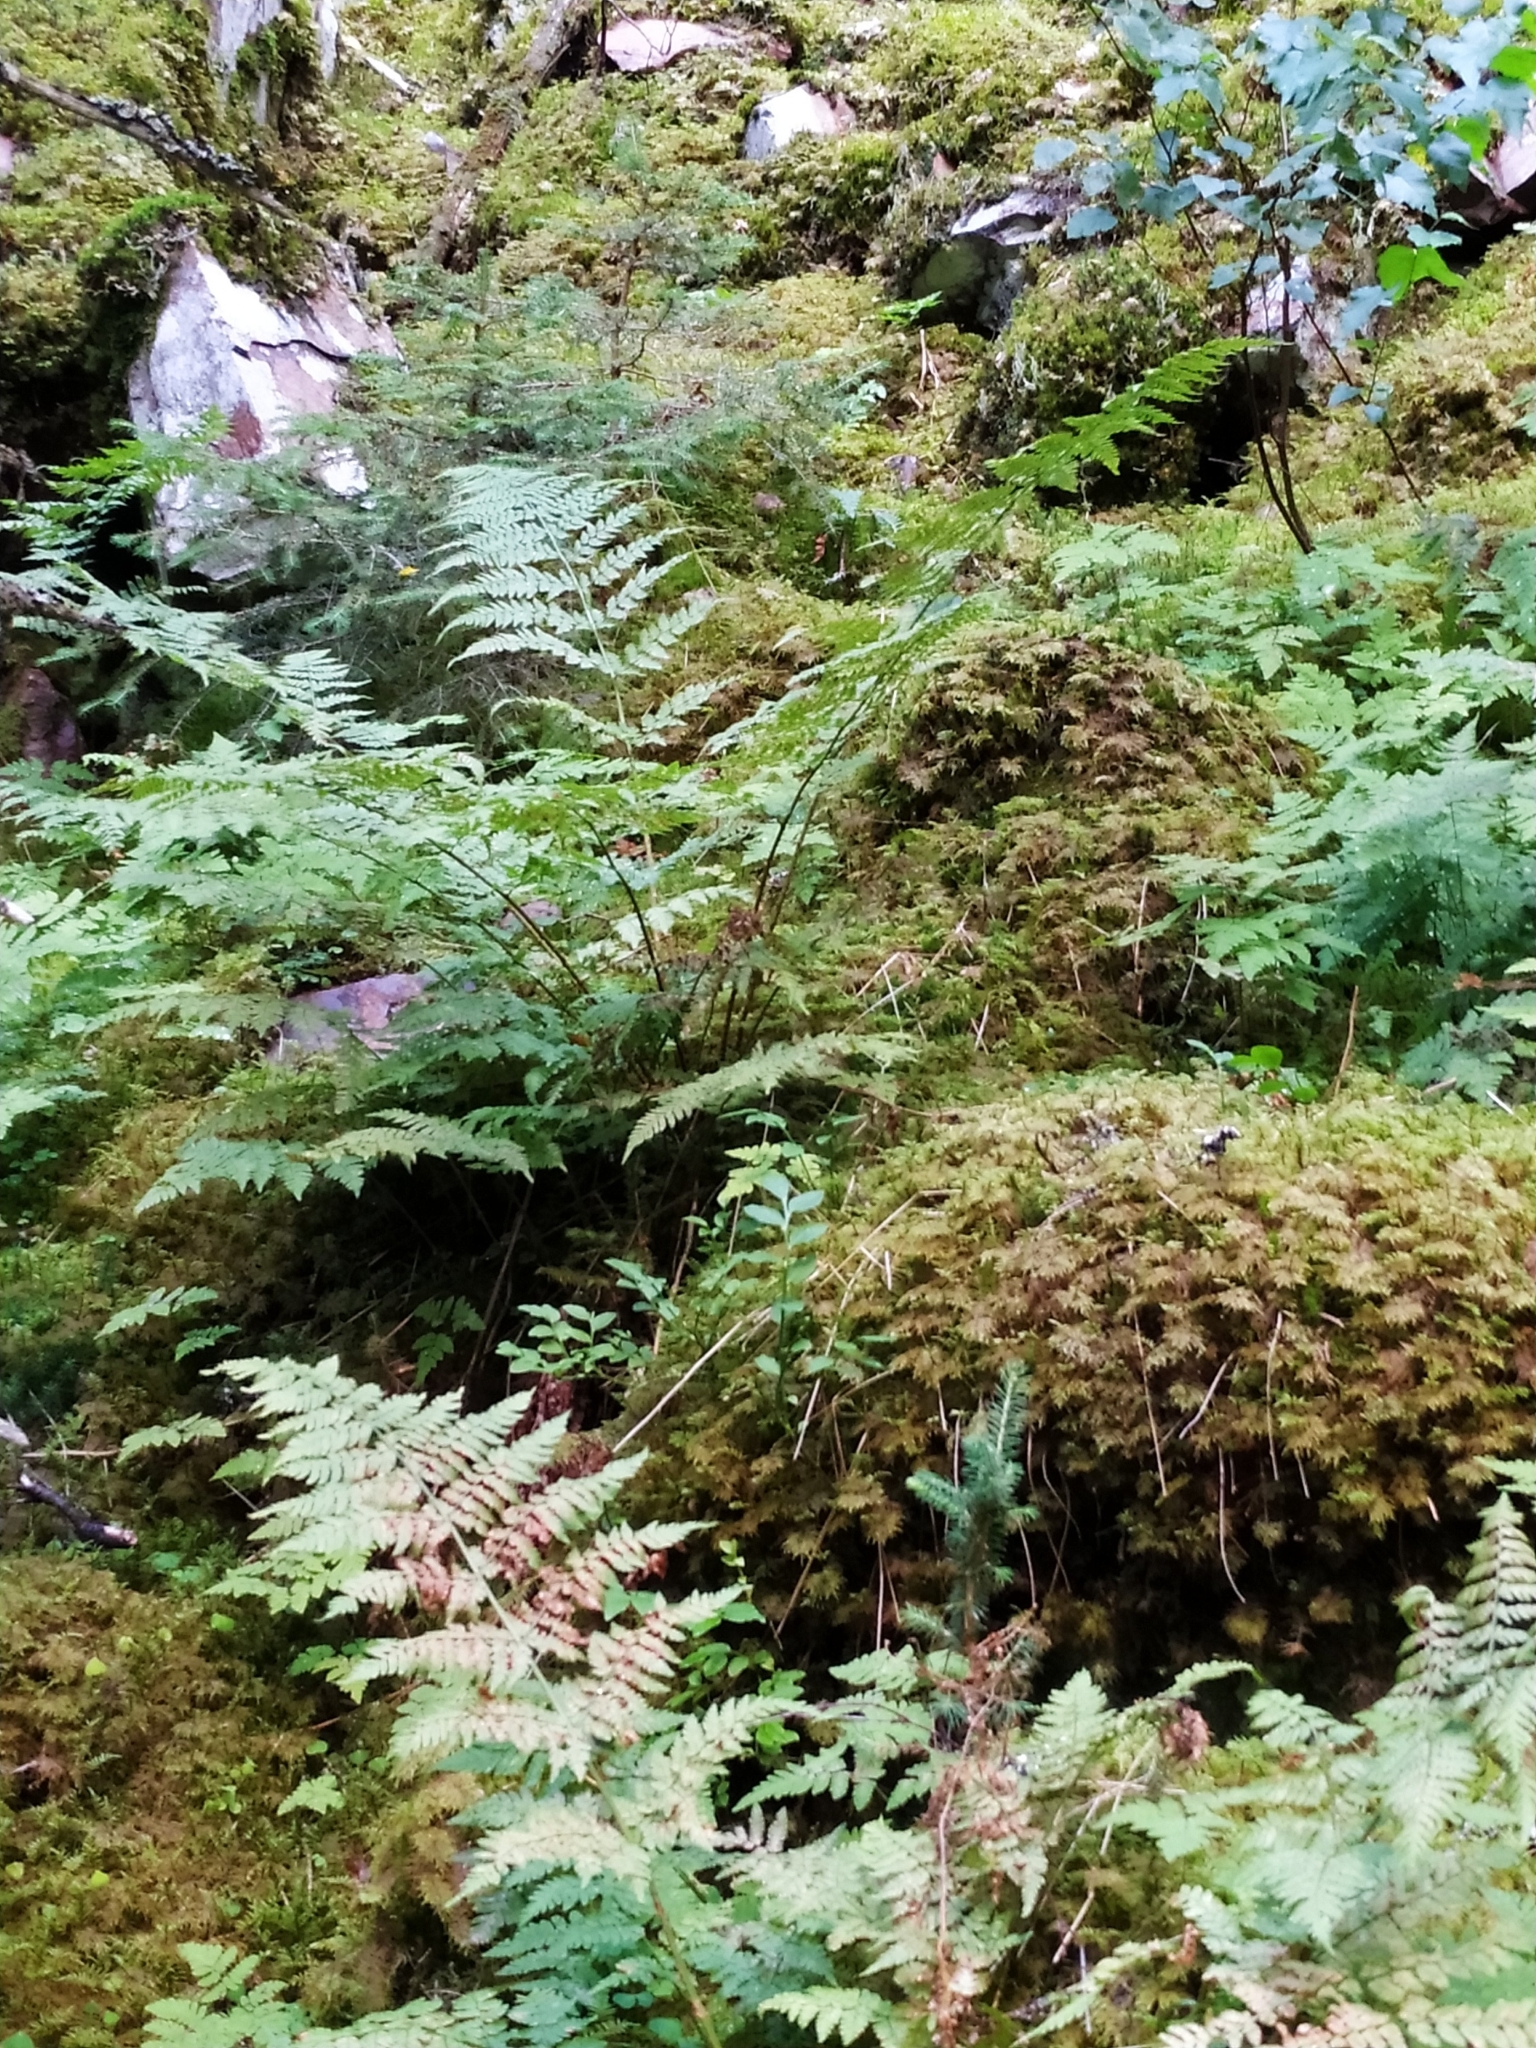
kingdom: Plantae
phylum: Tracheophyta
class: Polypodiopsida
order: Polypodiales
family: Dryopteridaceae
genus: Dryopteris
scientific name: Dryopteris carthusiana
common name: Narrow buckler-fern
